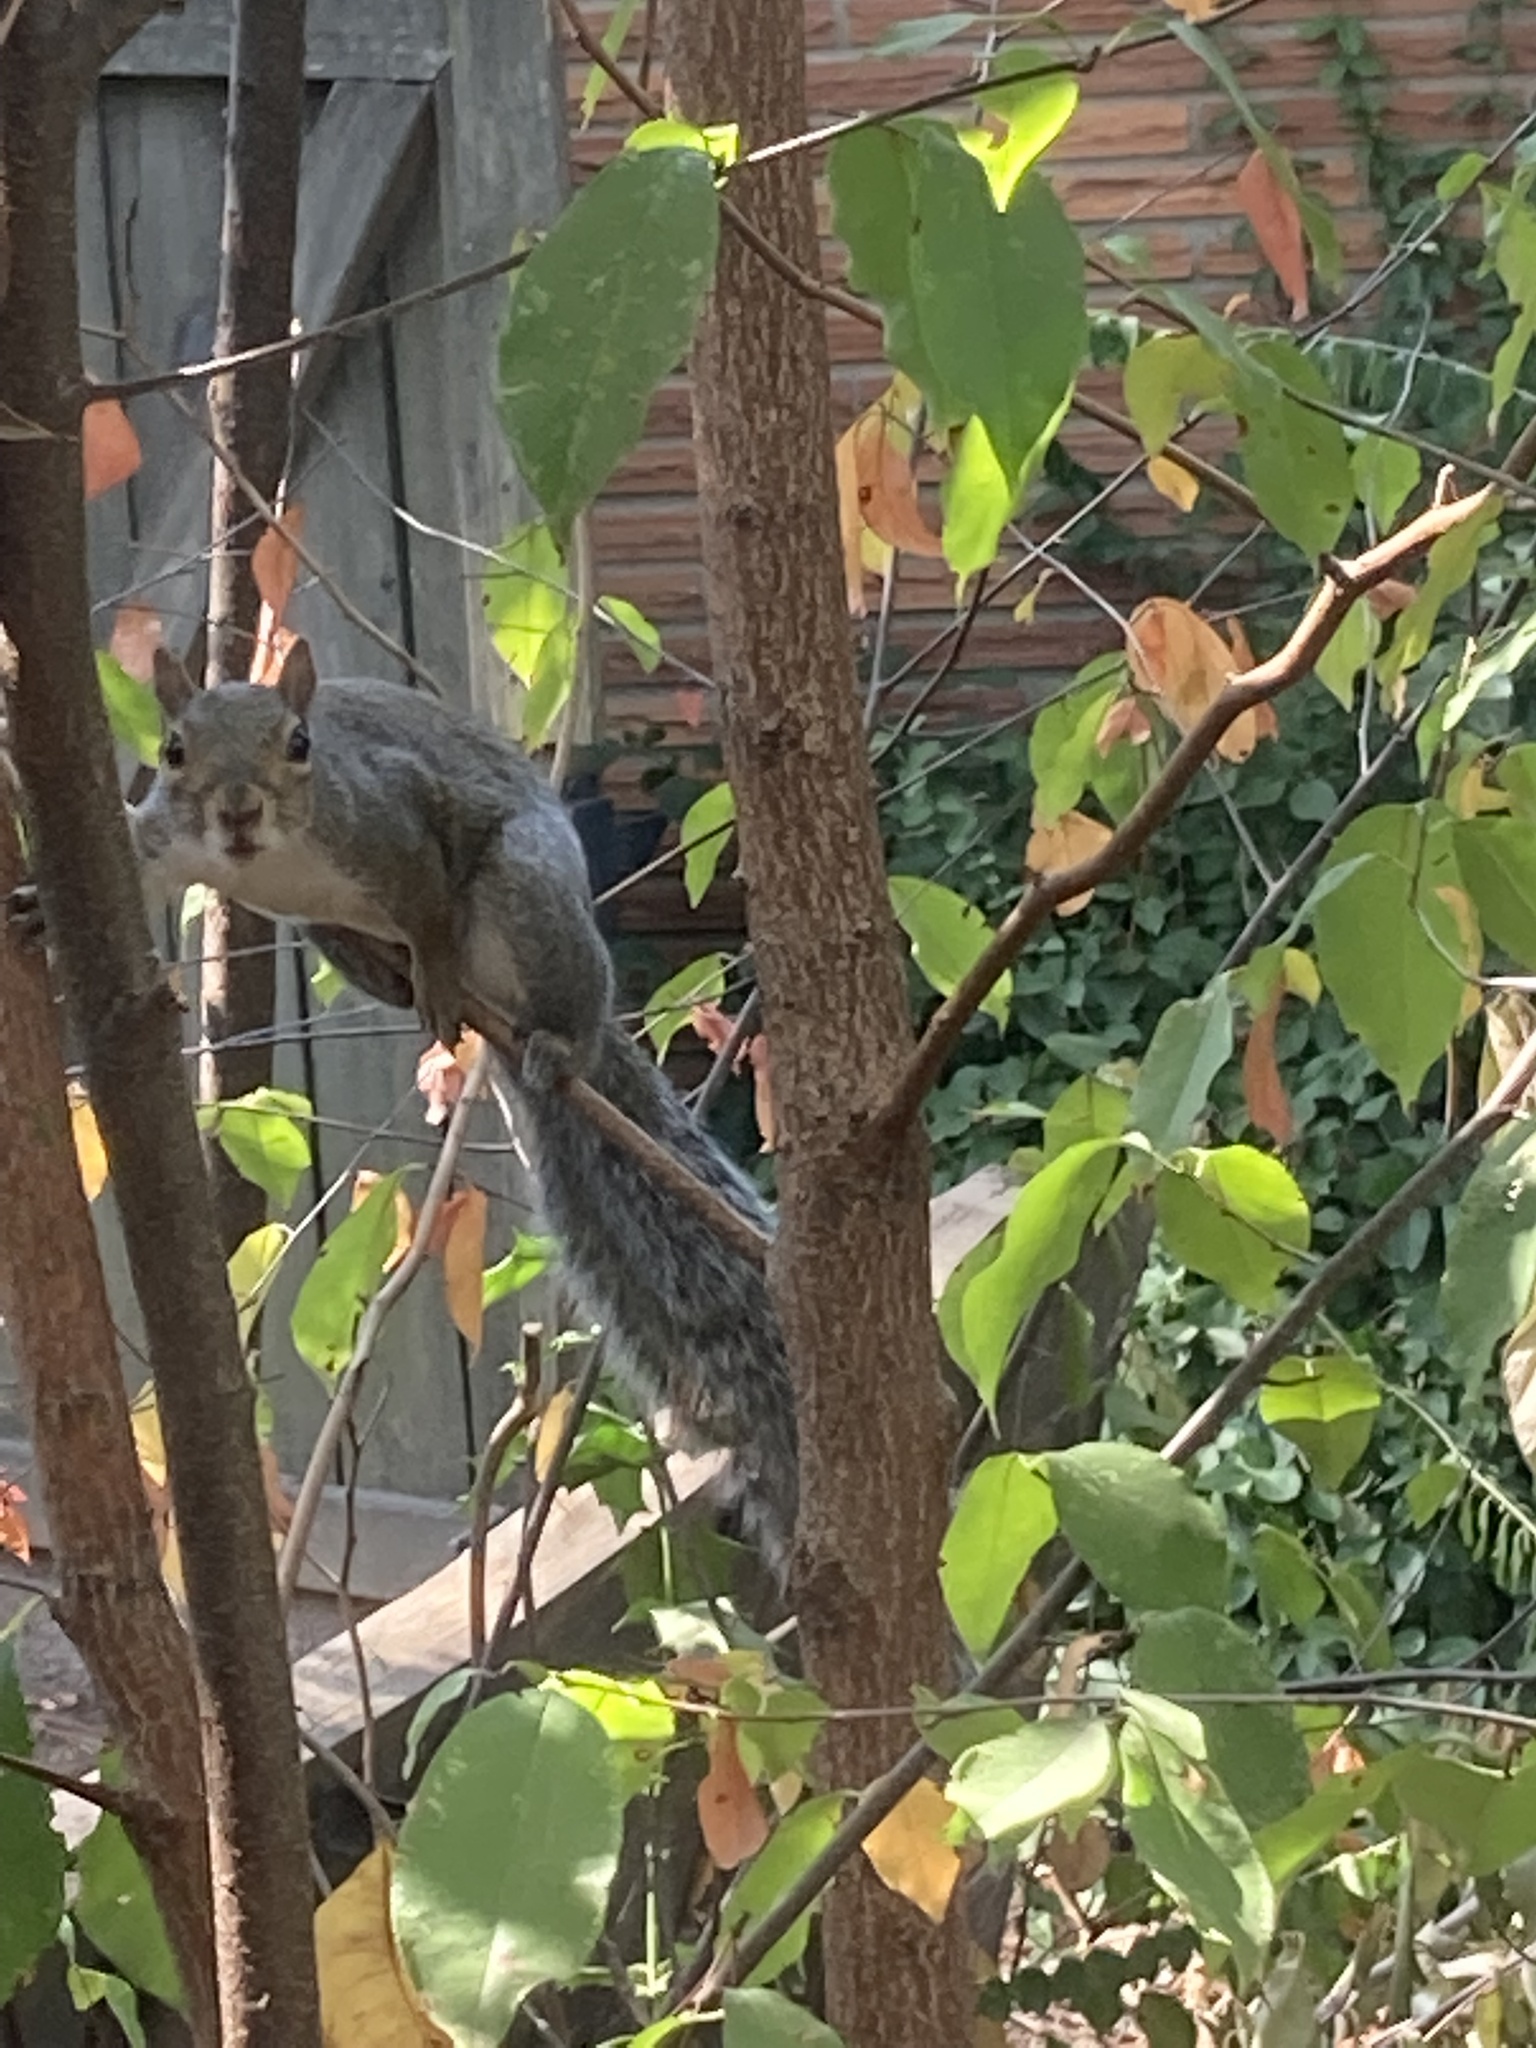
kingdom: Animalia
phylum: Chordata
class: Mammalia
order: Rodentia
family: Sciuridae
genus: Sciurus
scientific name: Sciurus carolinensis
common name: Eastern gray squirrel
